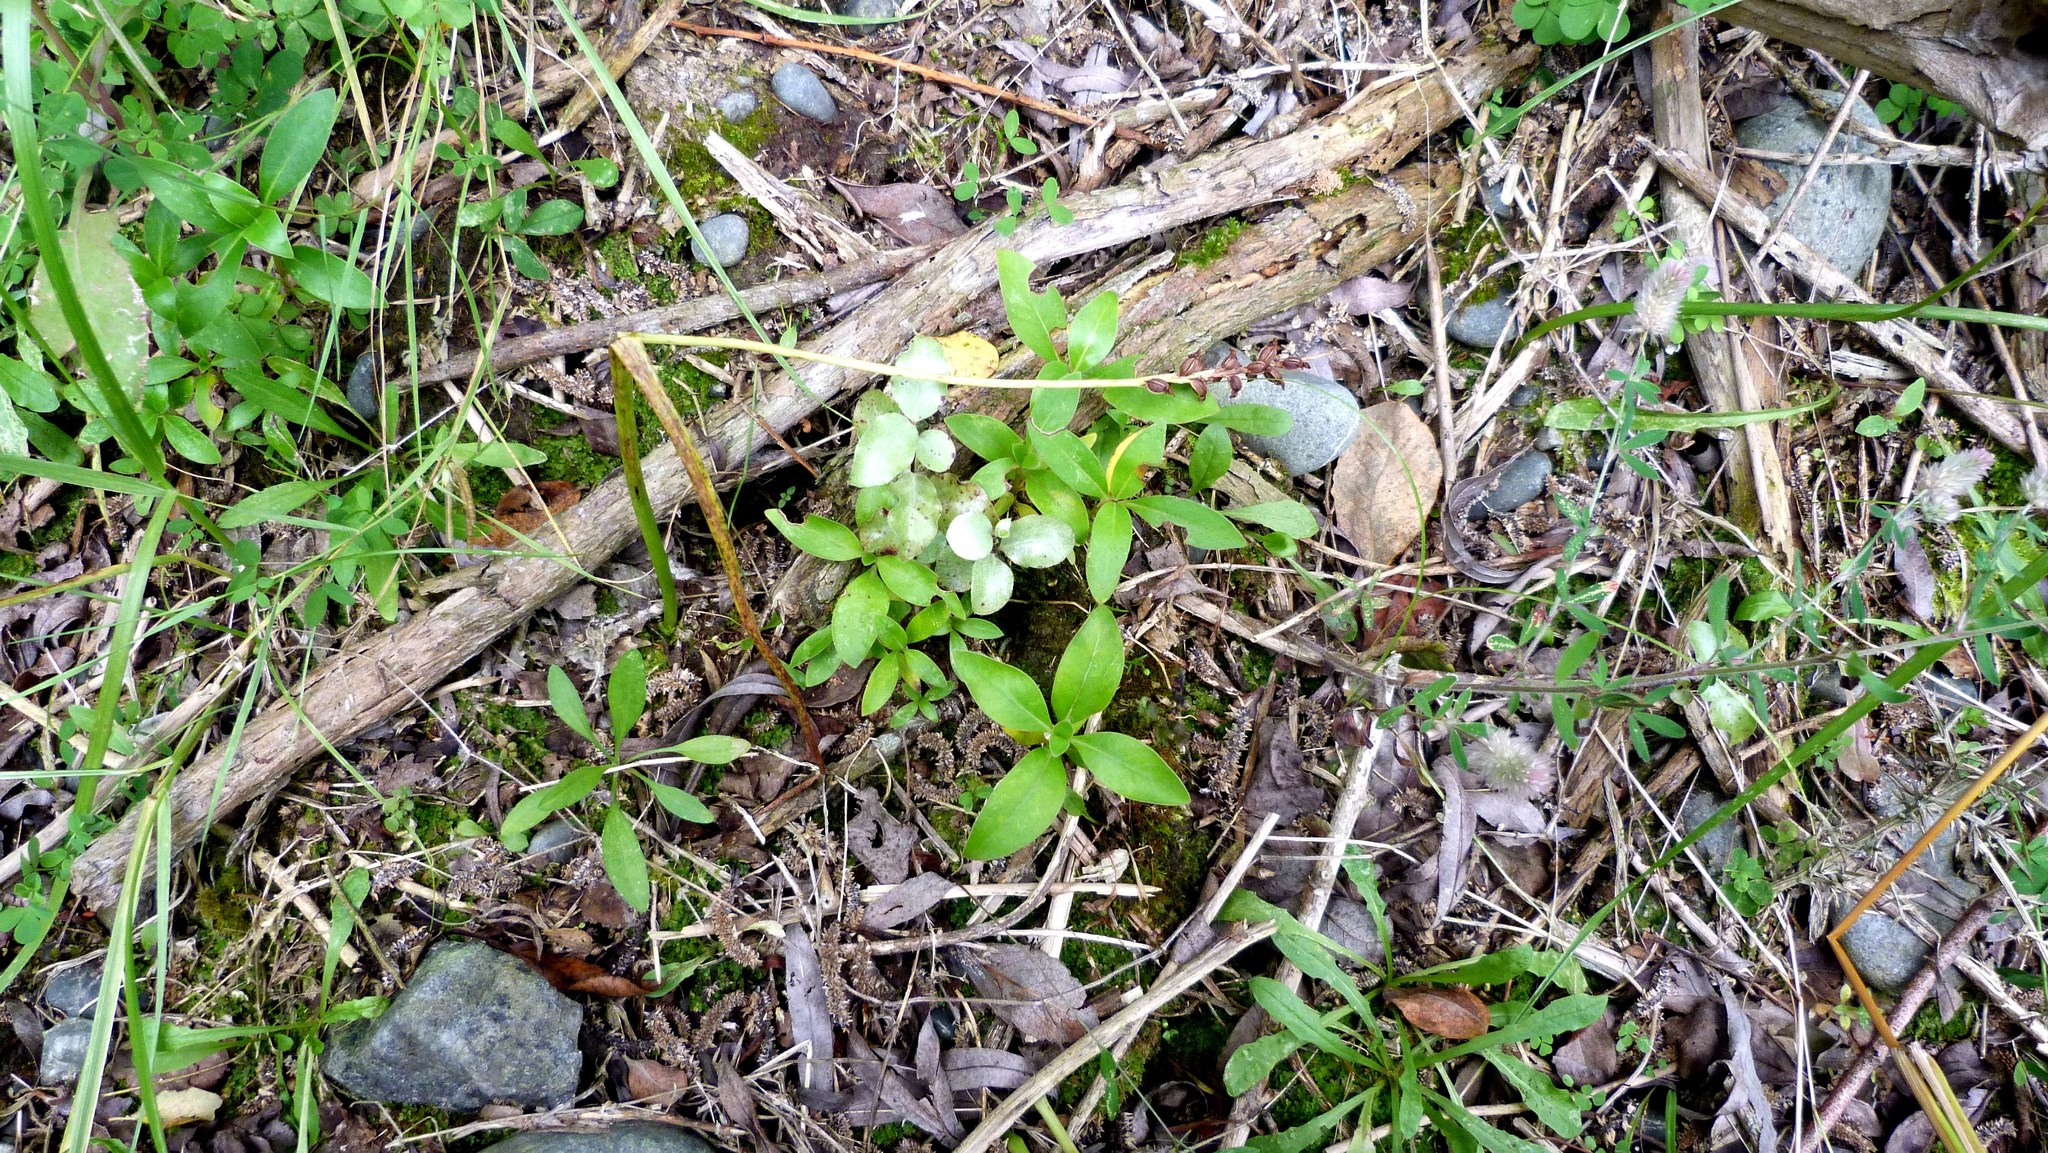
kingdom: Plantae
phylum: Tracheophyta
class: Magnoliopsida
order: Gentianales
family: Rubiaceae
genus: Coprosma
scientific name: Coprosma robusta
